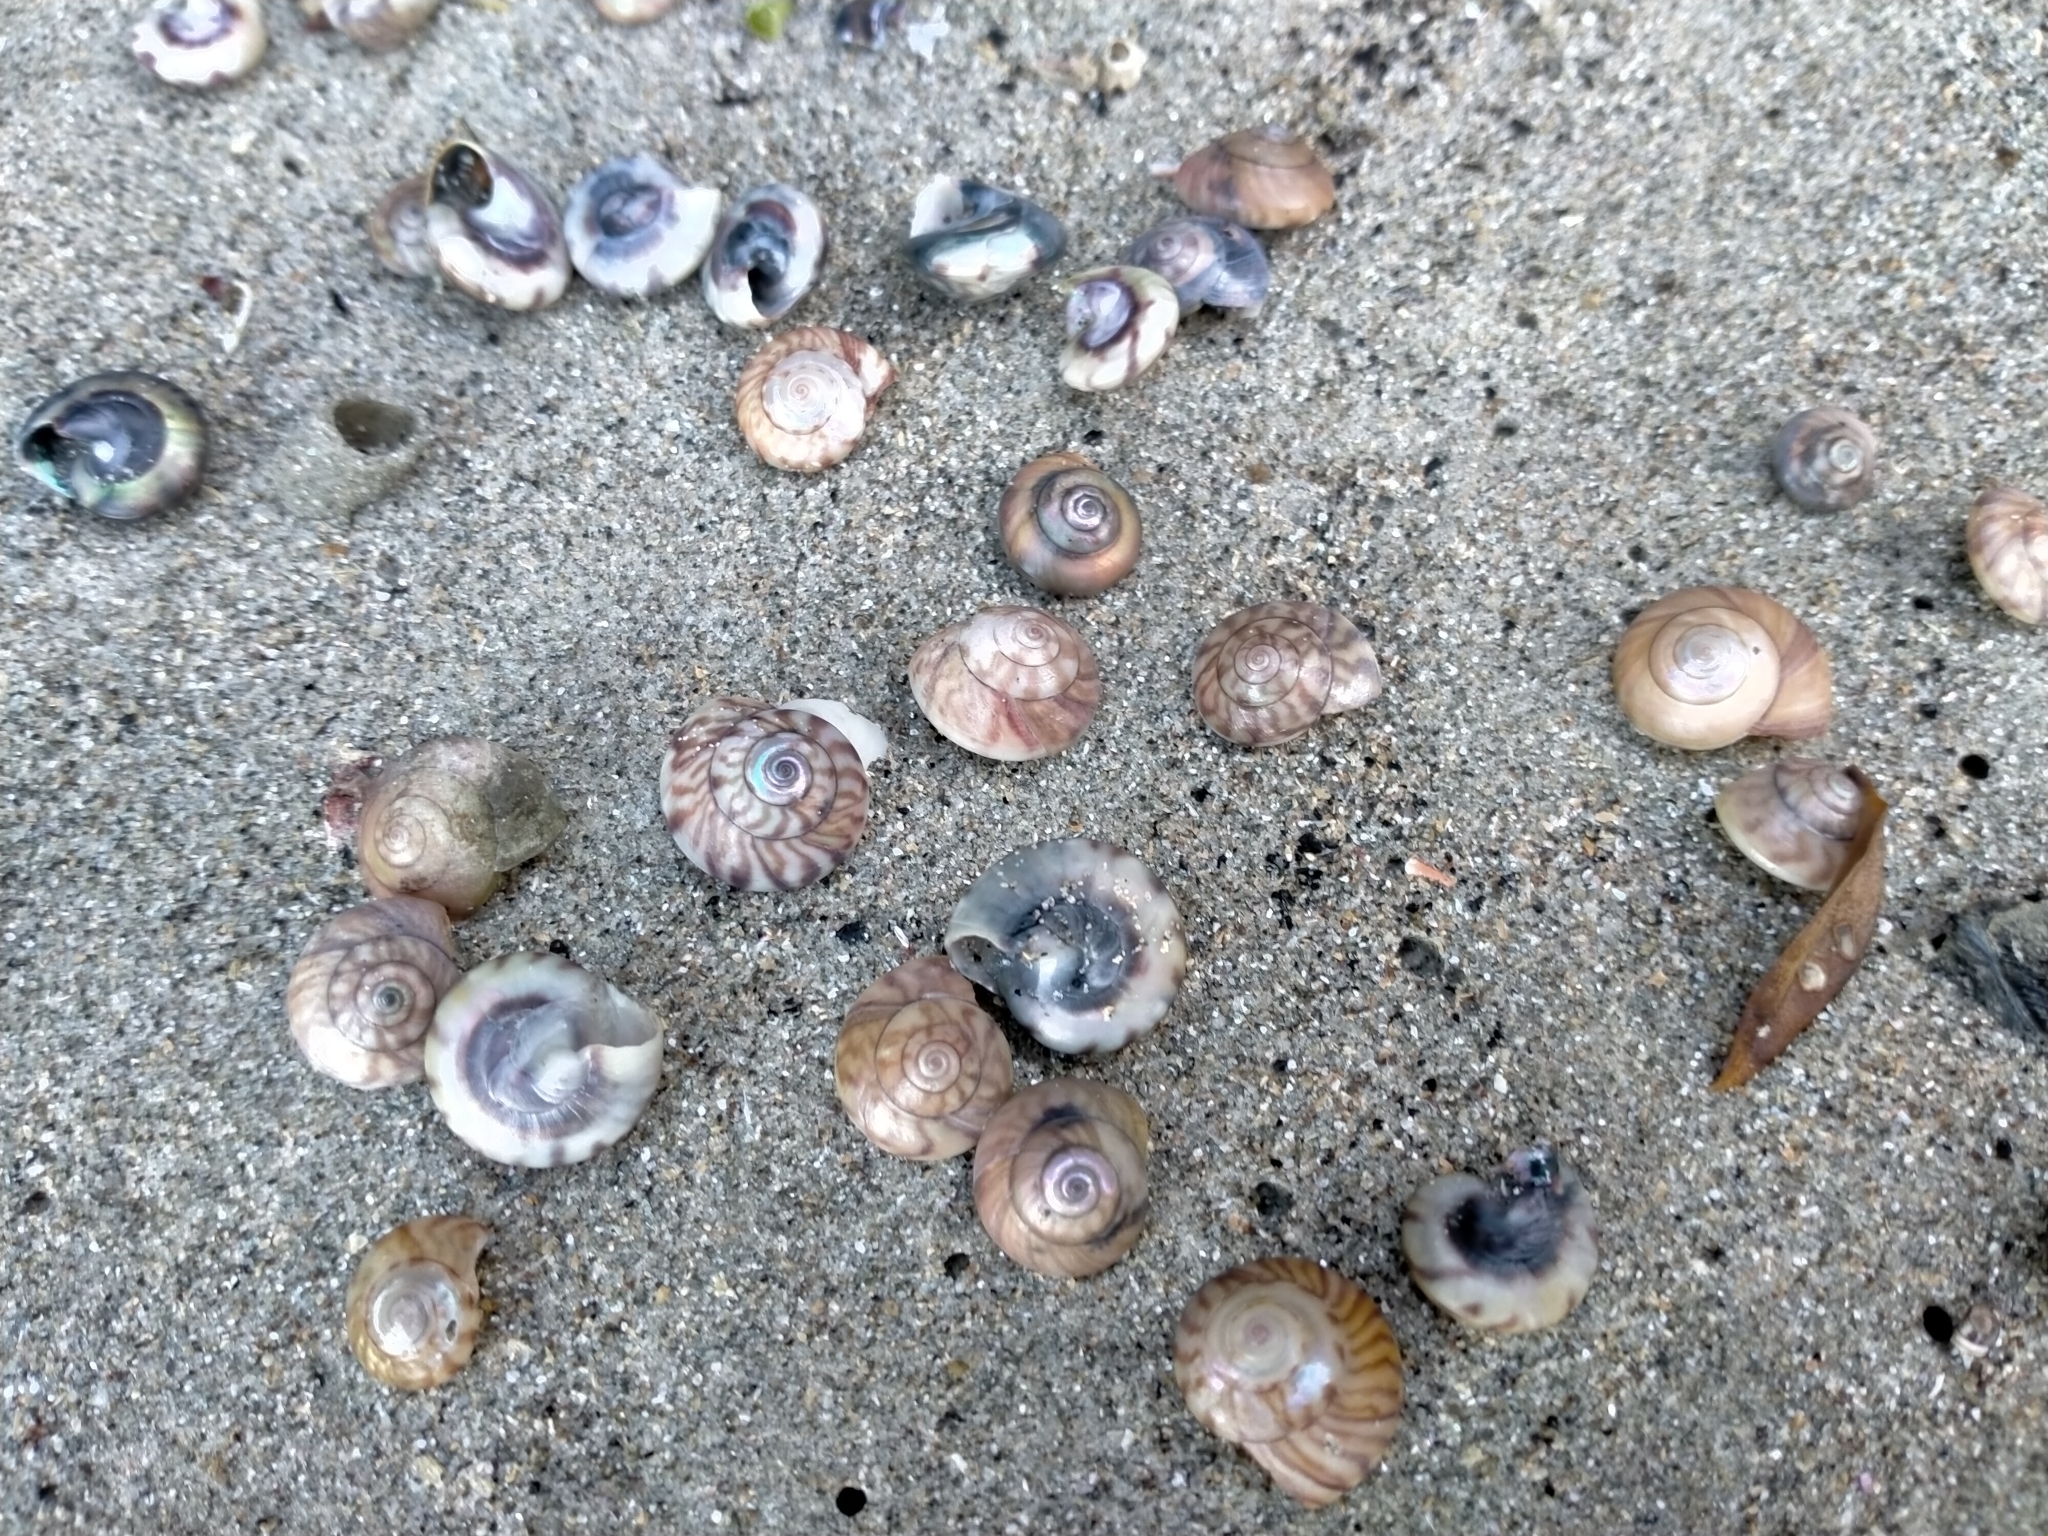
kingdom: Animalia
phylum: Mollusca
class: Gastropoda
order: Trochida
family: Trochidae
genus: Zethalia
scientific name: Zethalia zelandica
